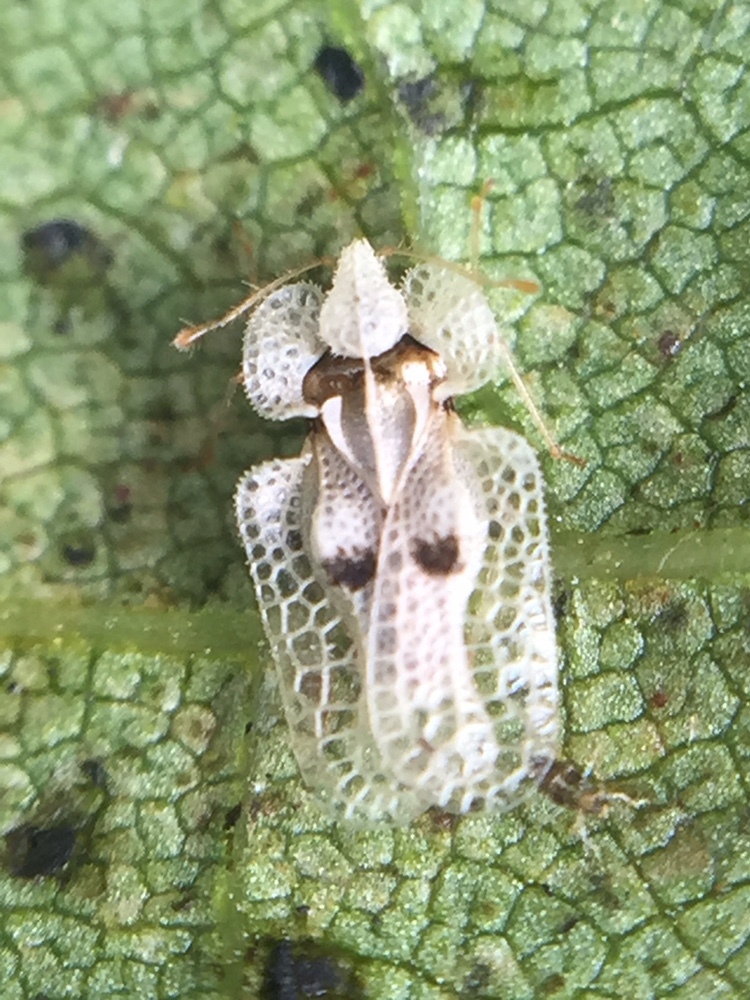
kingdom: Animalia
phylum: Arthropoda
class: Insecta
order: Hemiptera
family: Tingidae
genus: Corythucha
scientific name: Corythucha ciliata
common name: Sycamore lace bug
